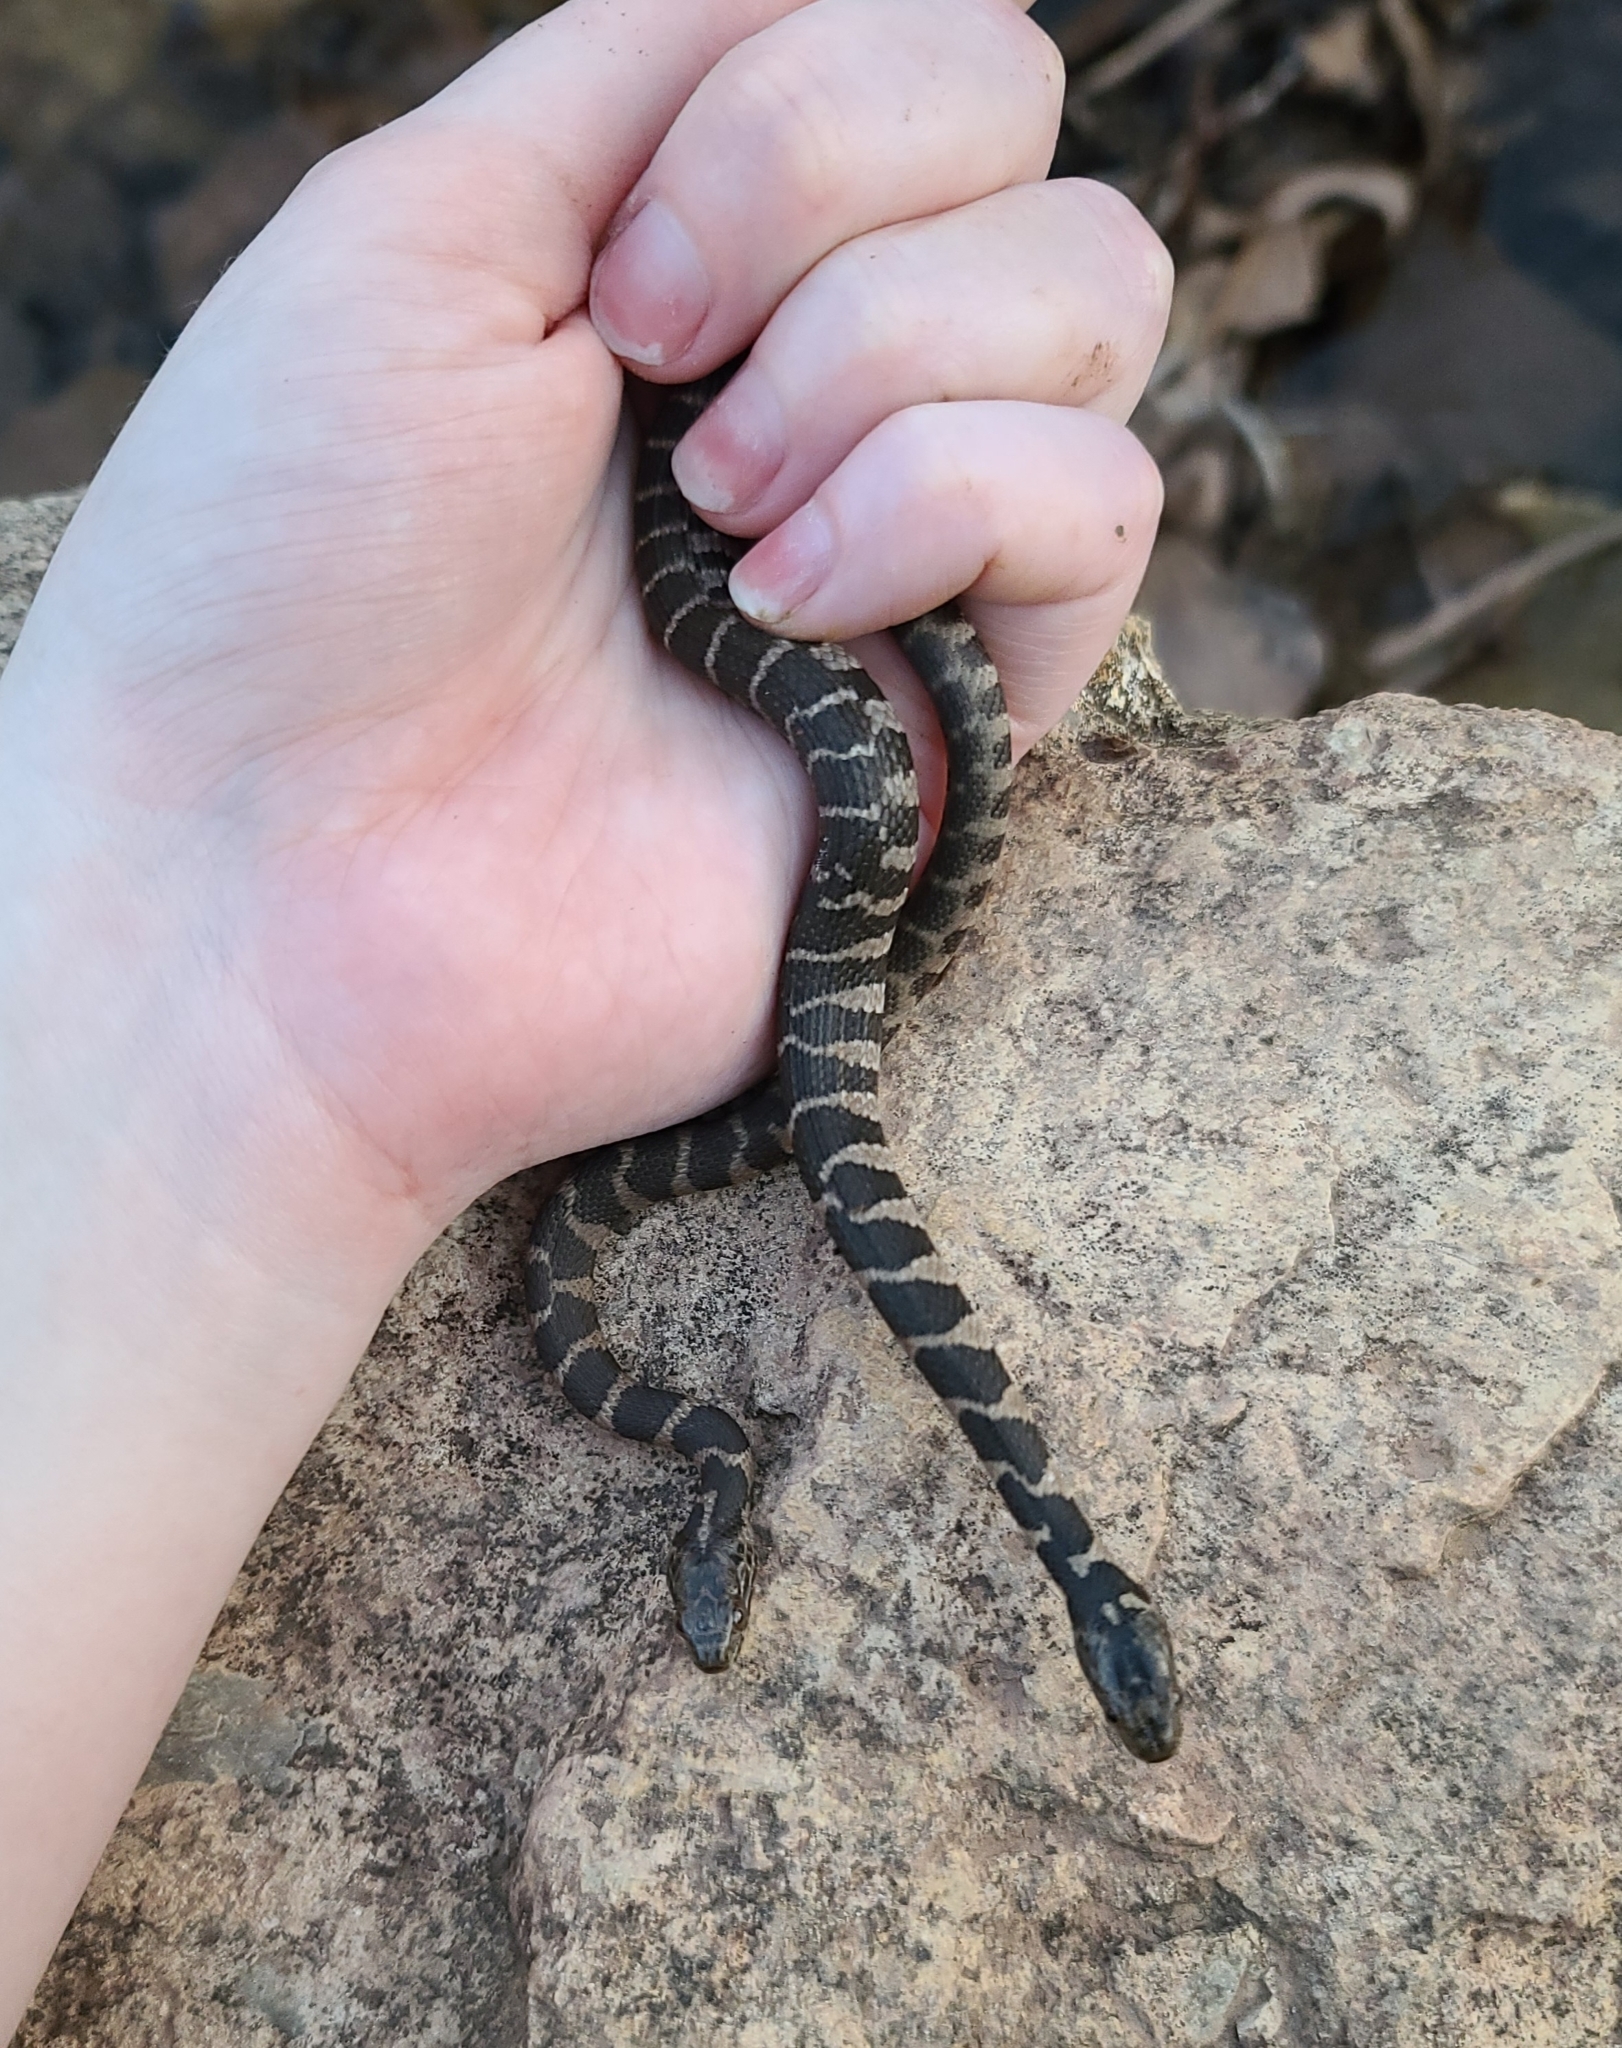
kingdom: Animalia
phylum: Chordata
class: Squamata
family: Colubridae
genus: Nerodia
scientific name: Nerodia sipedon
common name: Northern water snake
